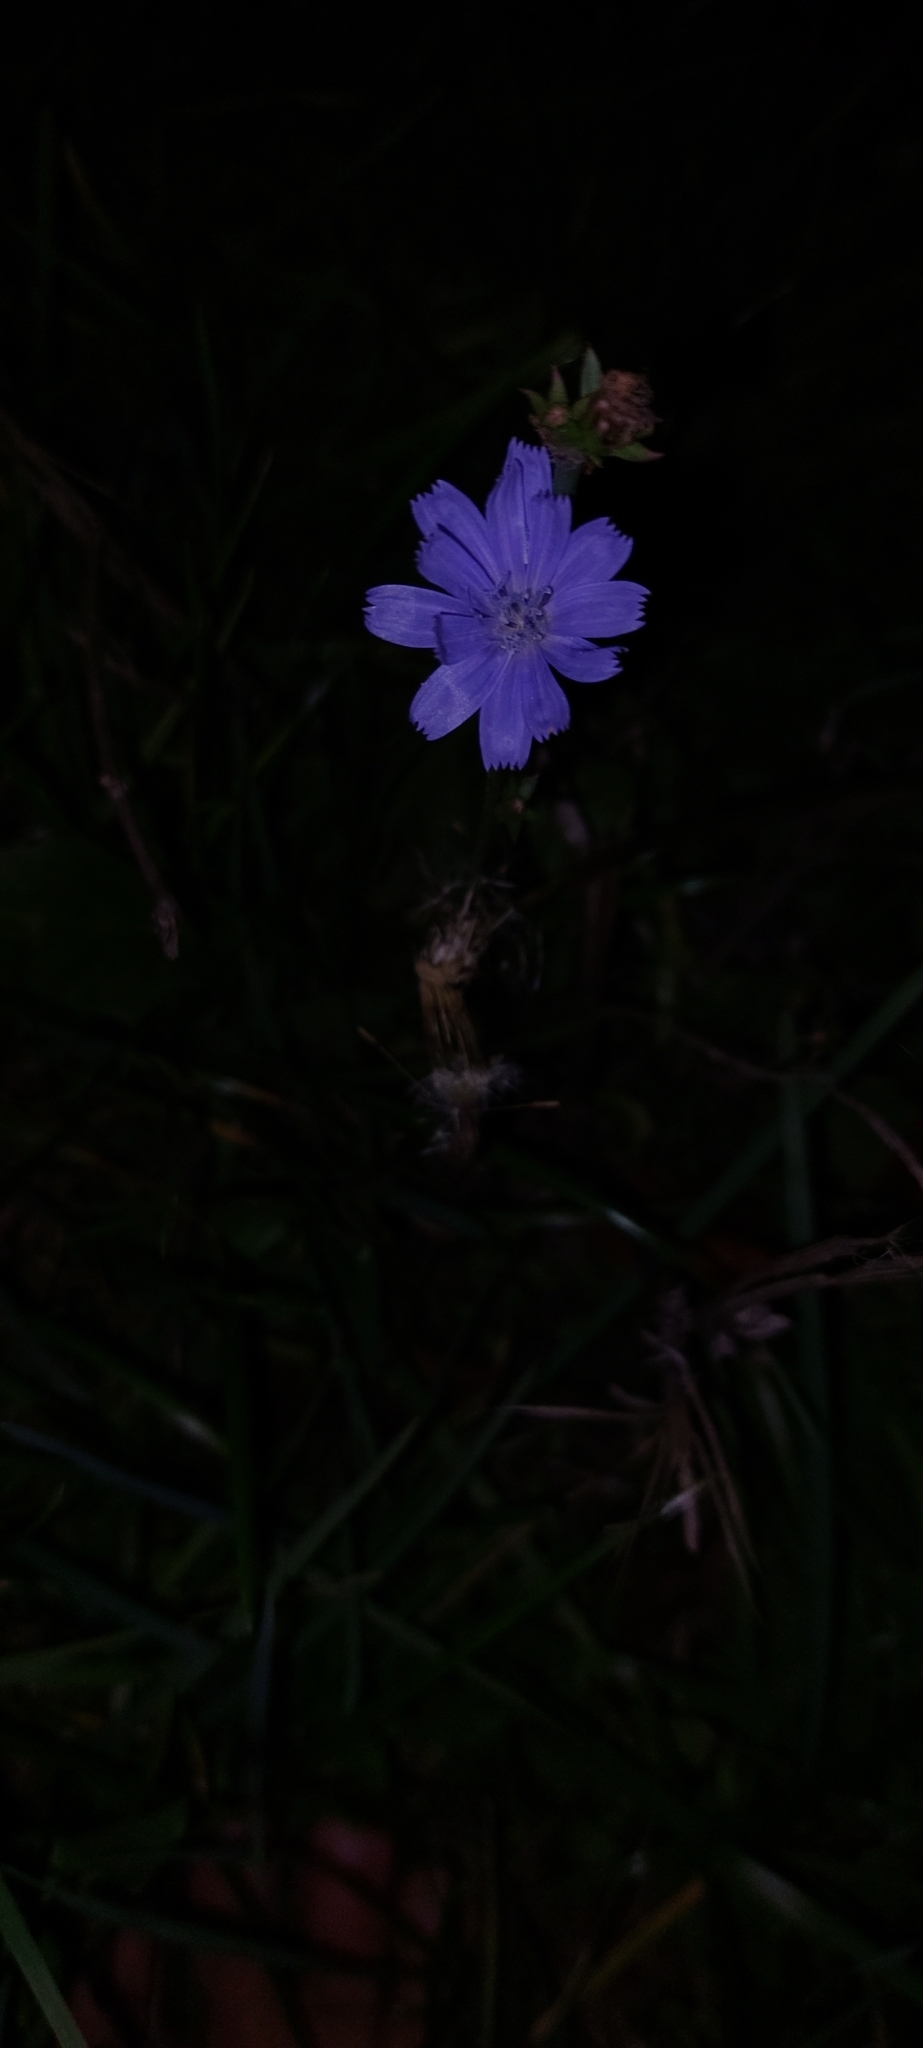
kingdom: Plantae
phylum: Tracheophyta
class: Magnoliopsida
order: Asterales
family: Asteraceae
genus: Cichorium
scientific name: Cichorium intybus
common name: Chicory
